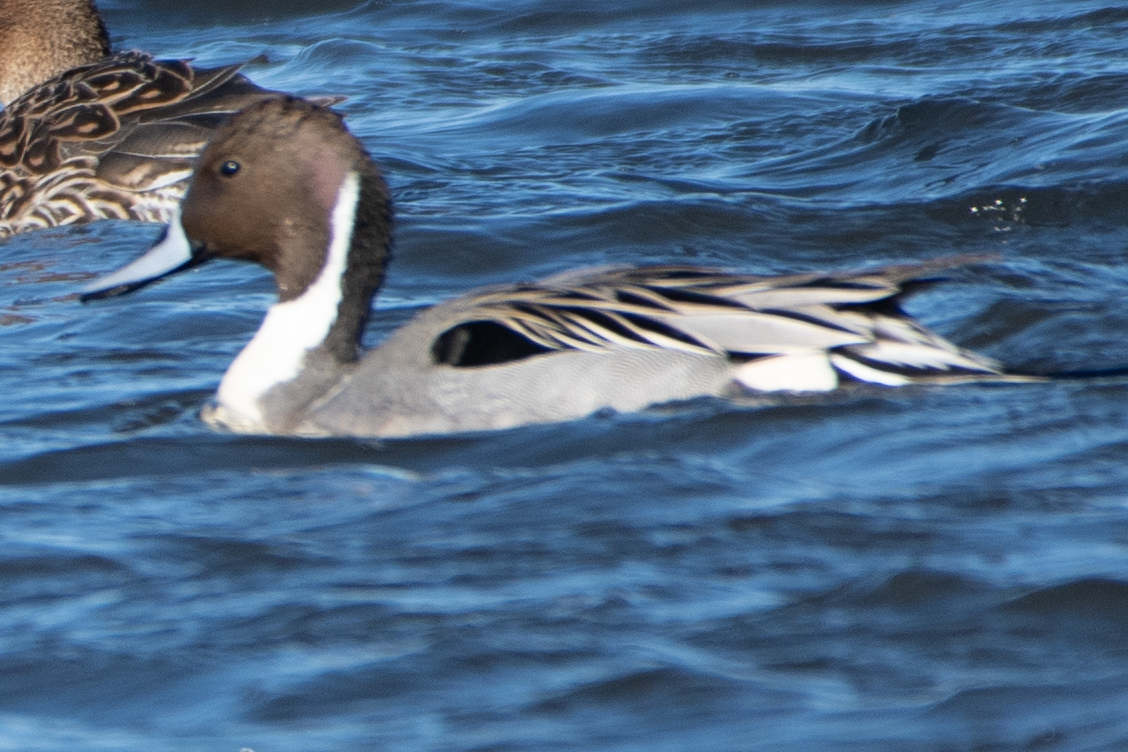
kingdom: Animalia
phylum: Chordata
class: Aves
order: Anseriformes
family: Anatidae
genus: Anas
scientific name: Anas acuta
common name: Northern pintail
